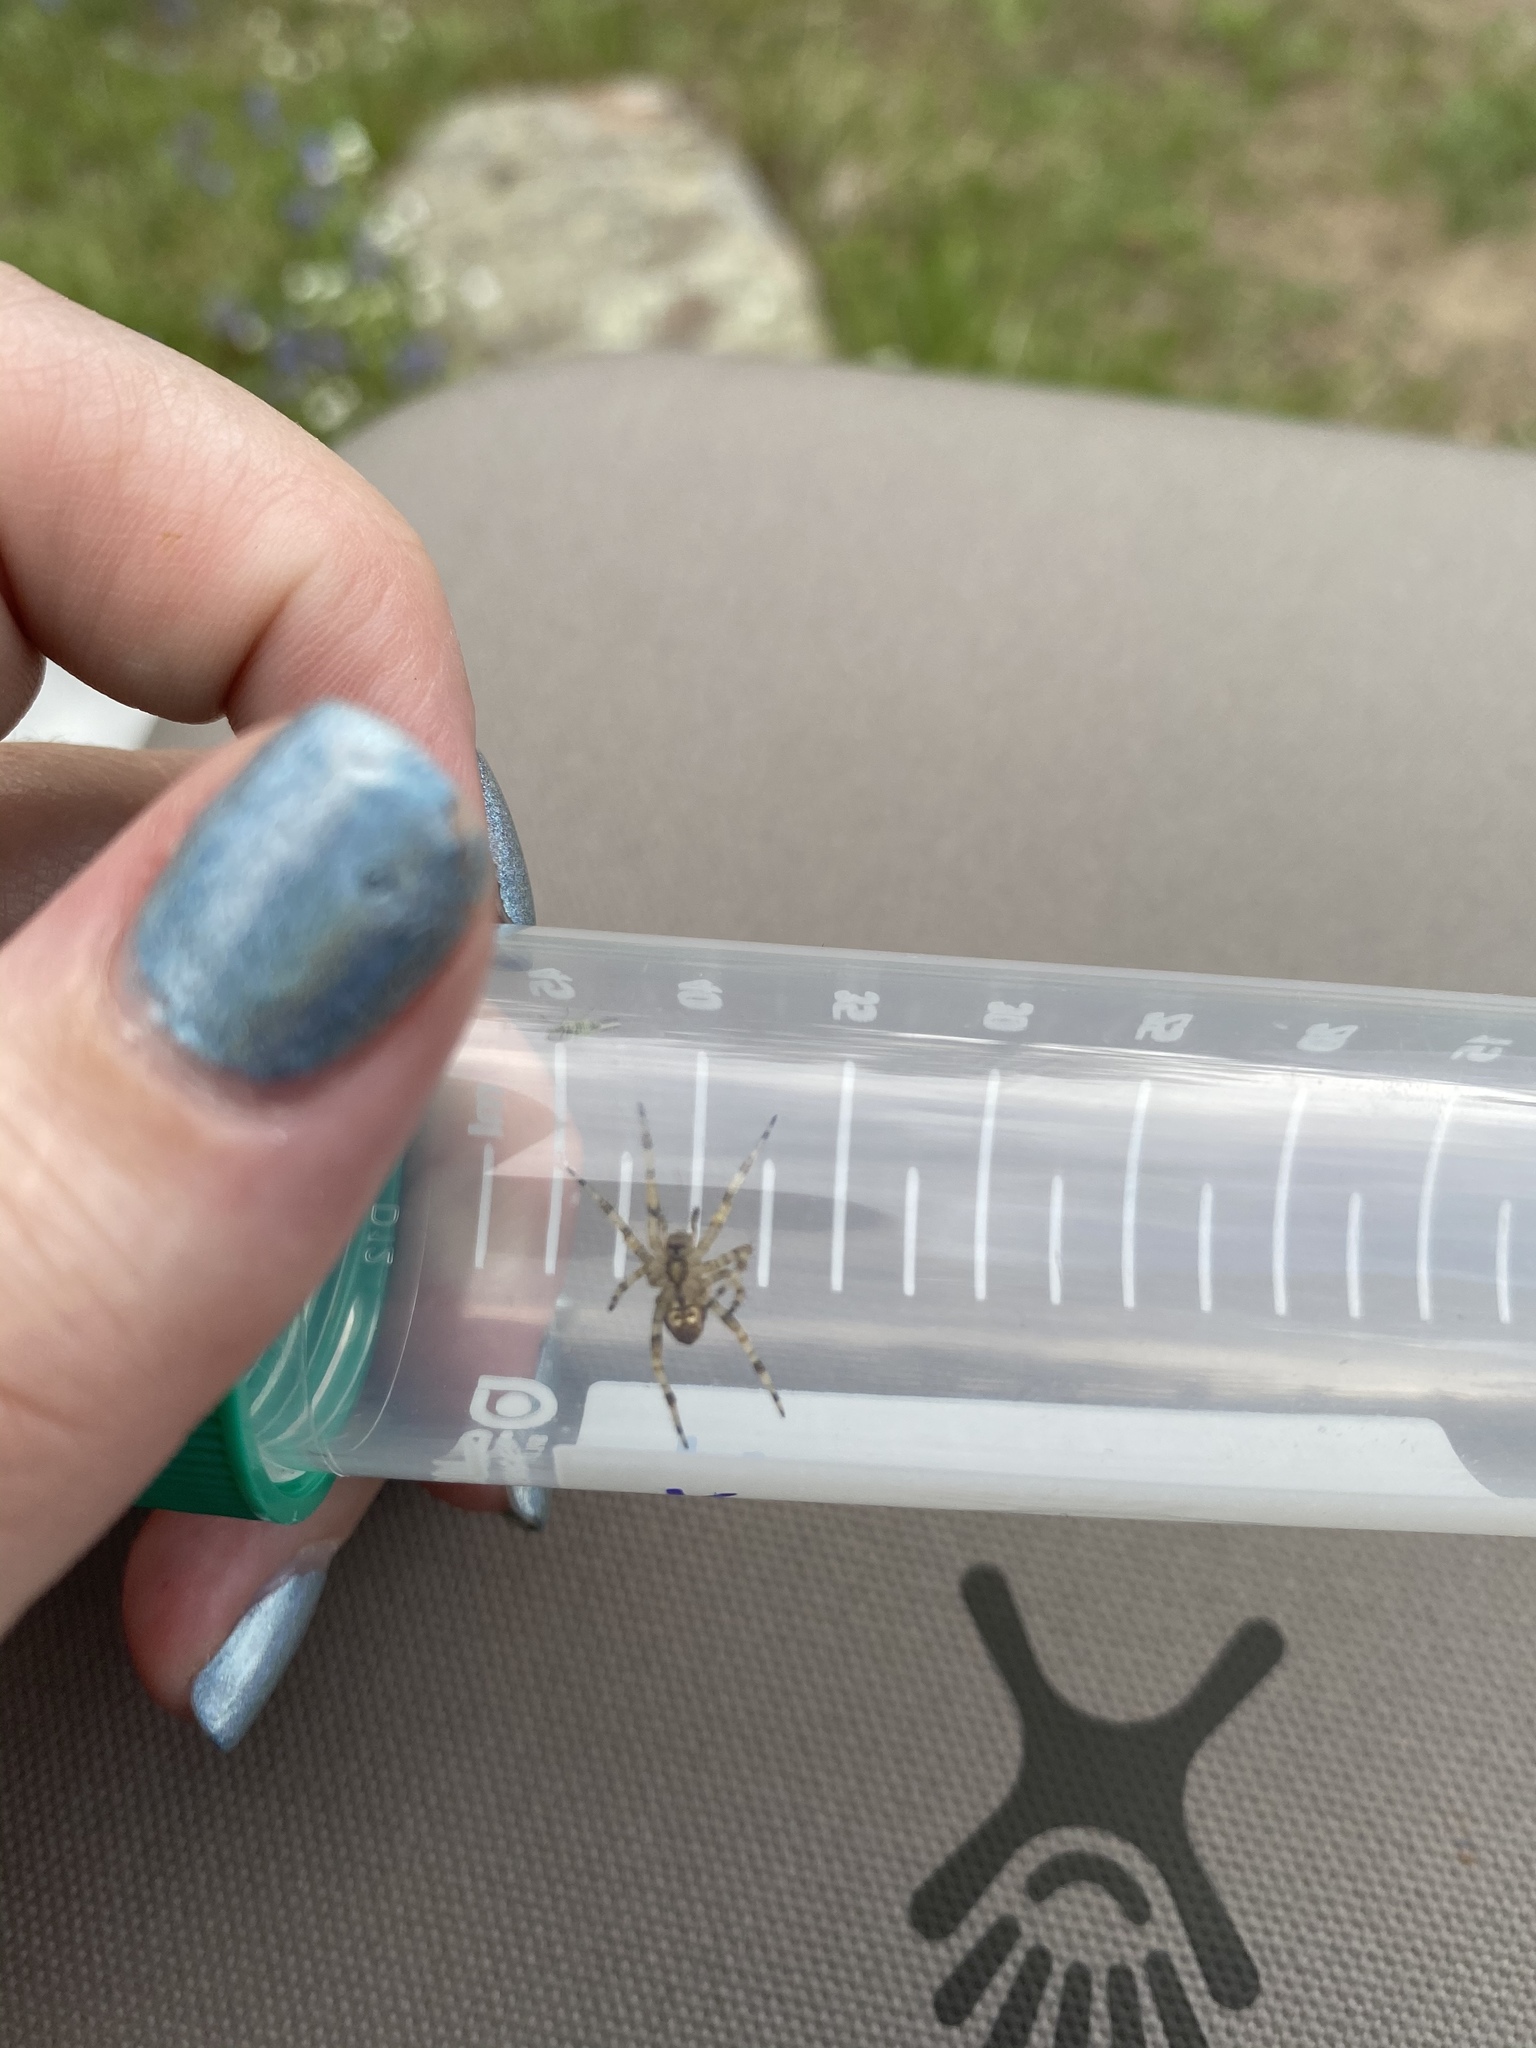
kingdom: Animalia
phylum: Arthropoda
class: Arachnida
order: Araneae
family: Araneidae
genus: Araneus
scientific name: Araneus gemmoides
